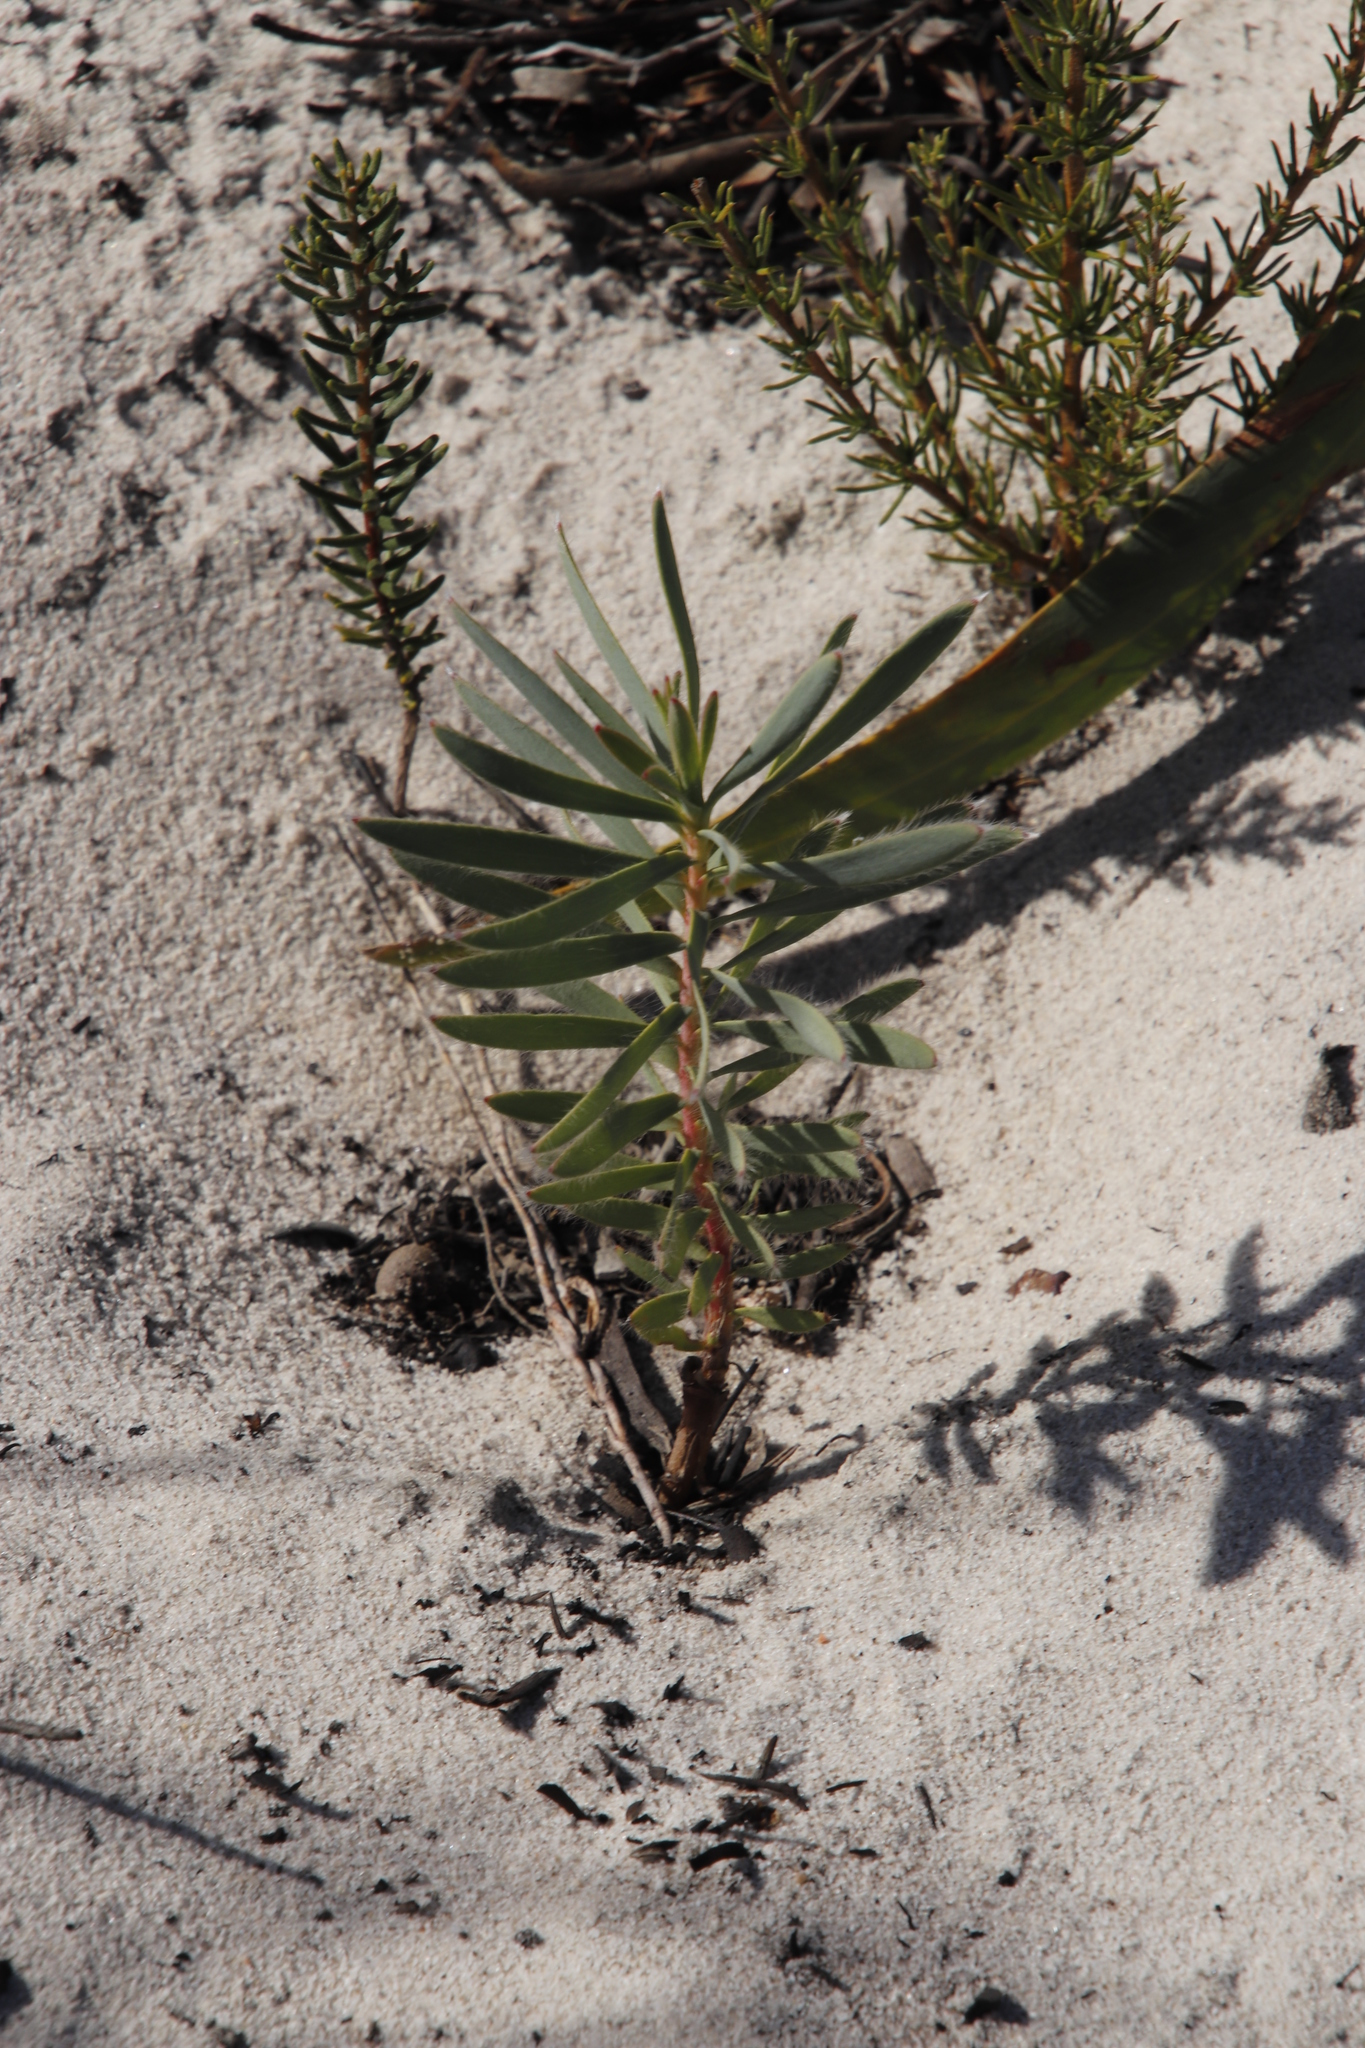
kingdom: Plantae
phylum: Tracheophyta
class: Magnoliopsida
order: Proteales
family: Proteaceae
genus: Protea
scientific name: Protea repens
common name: Sugarbush
